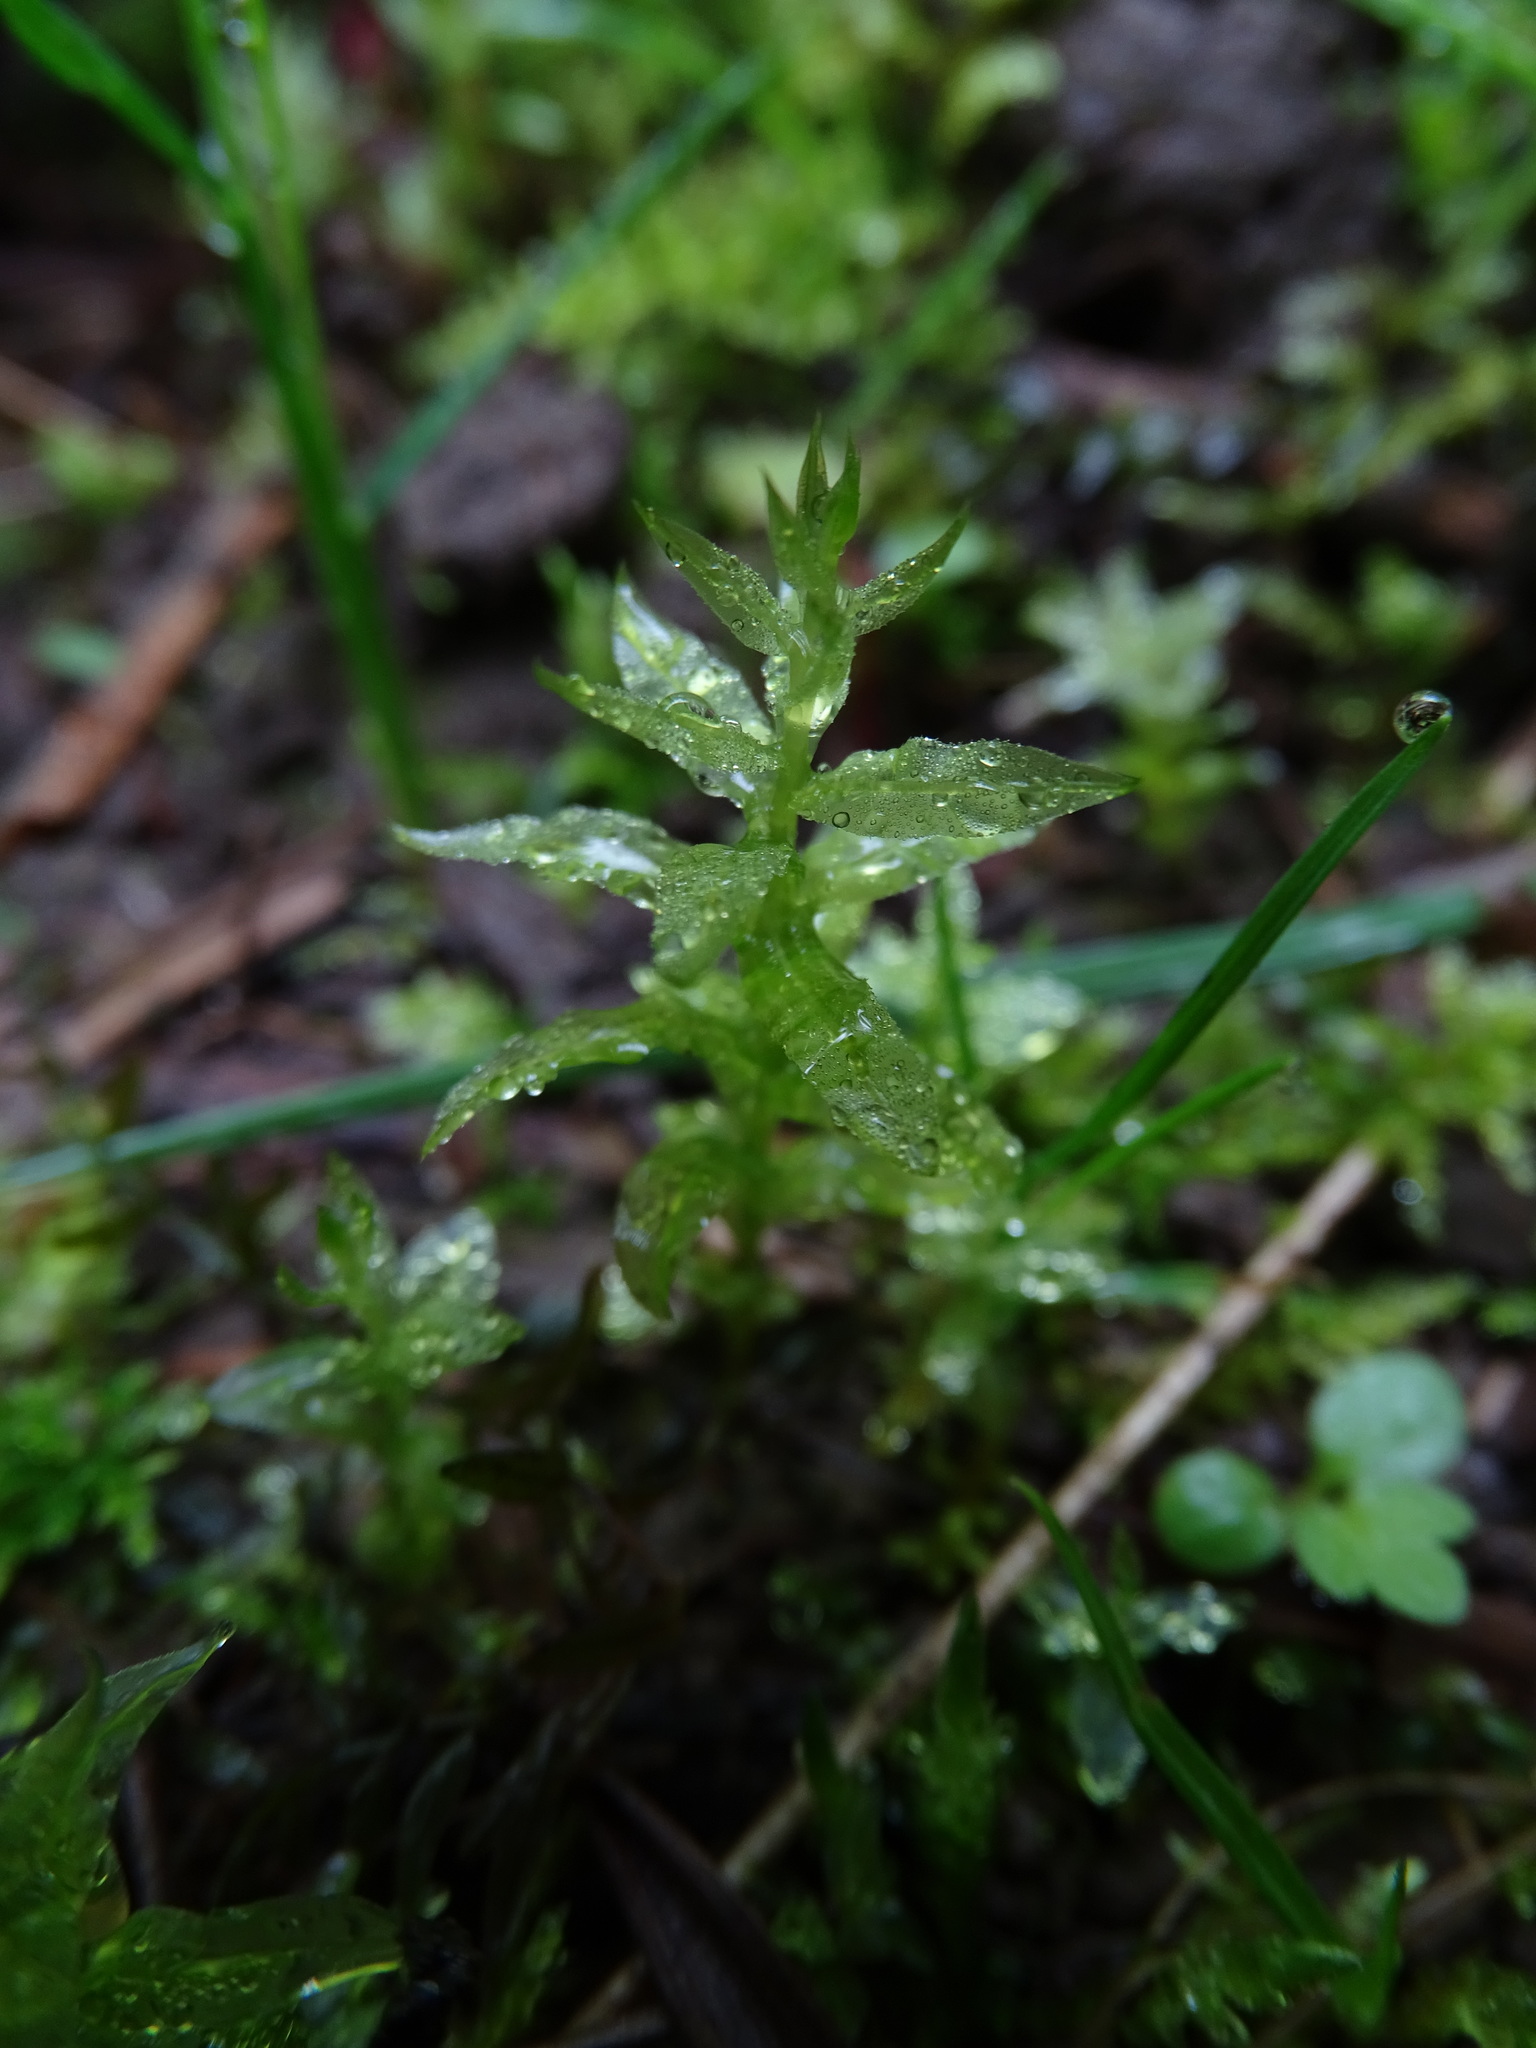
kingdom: Plantae
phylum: Bryophyta
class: Bryopsida
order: Bryales
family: Mniaceae
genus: Plagiomnium
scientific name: Plagiomnium undulatum
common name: Hart's-tongue thyme-moss
